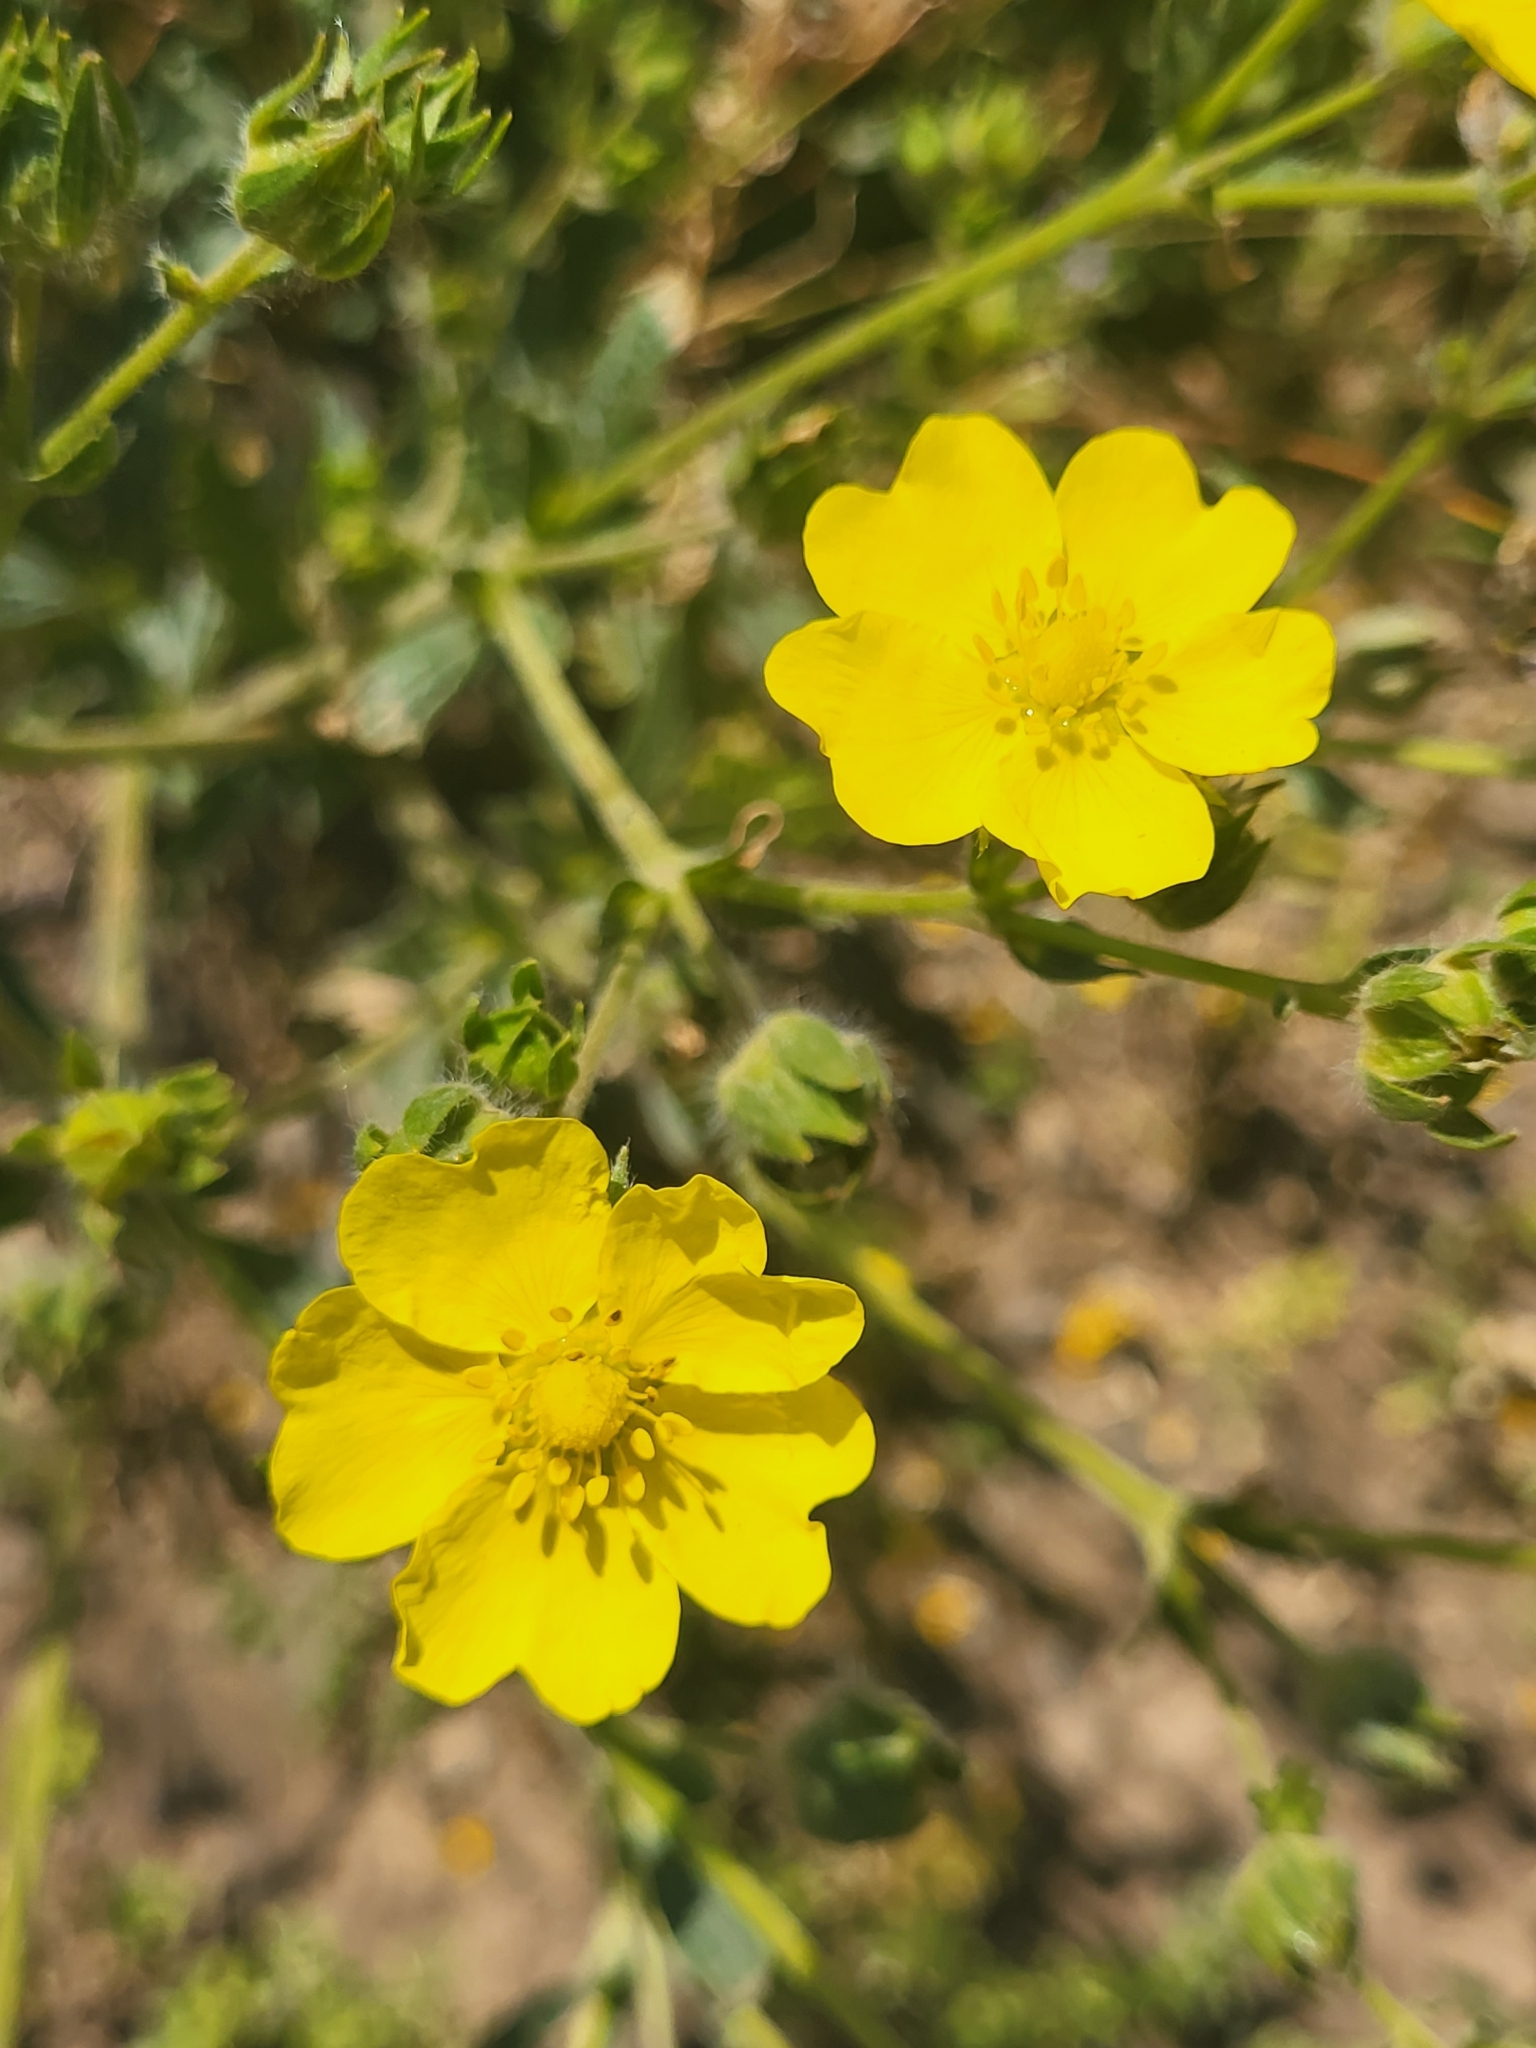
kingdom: Plantae
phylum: Tracheophyta
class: Magnoliopsida
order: Rosales
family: Rosaceae
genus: Potentilla
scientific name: Potentilla divaricata
